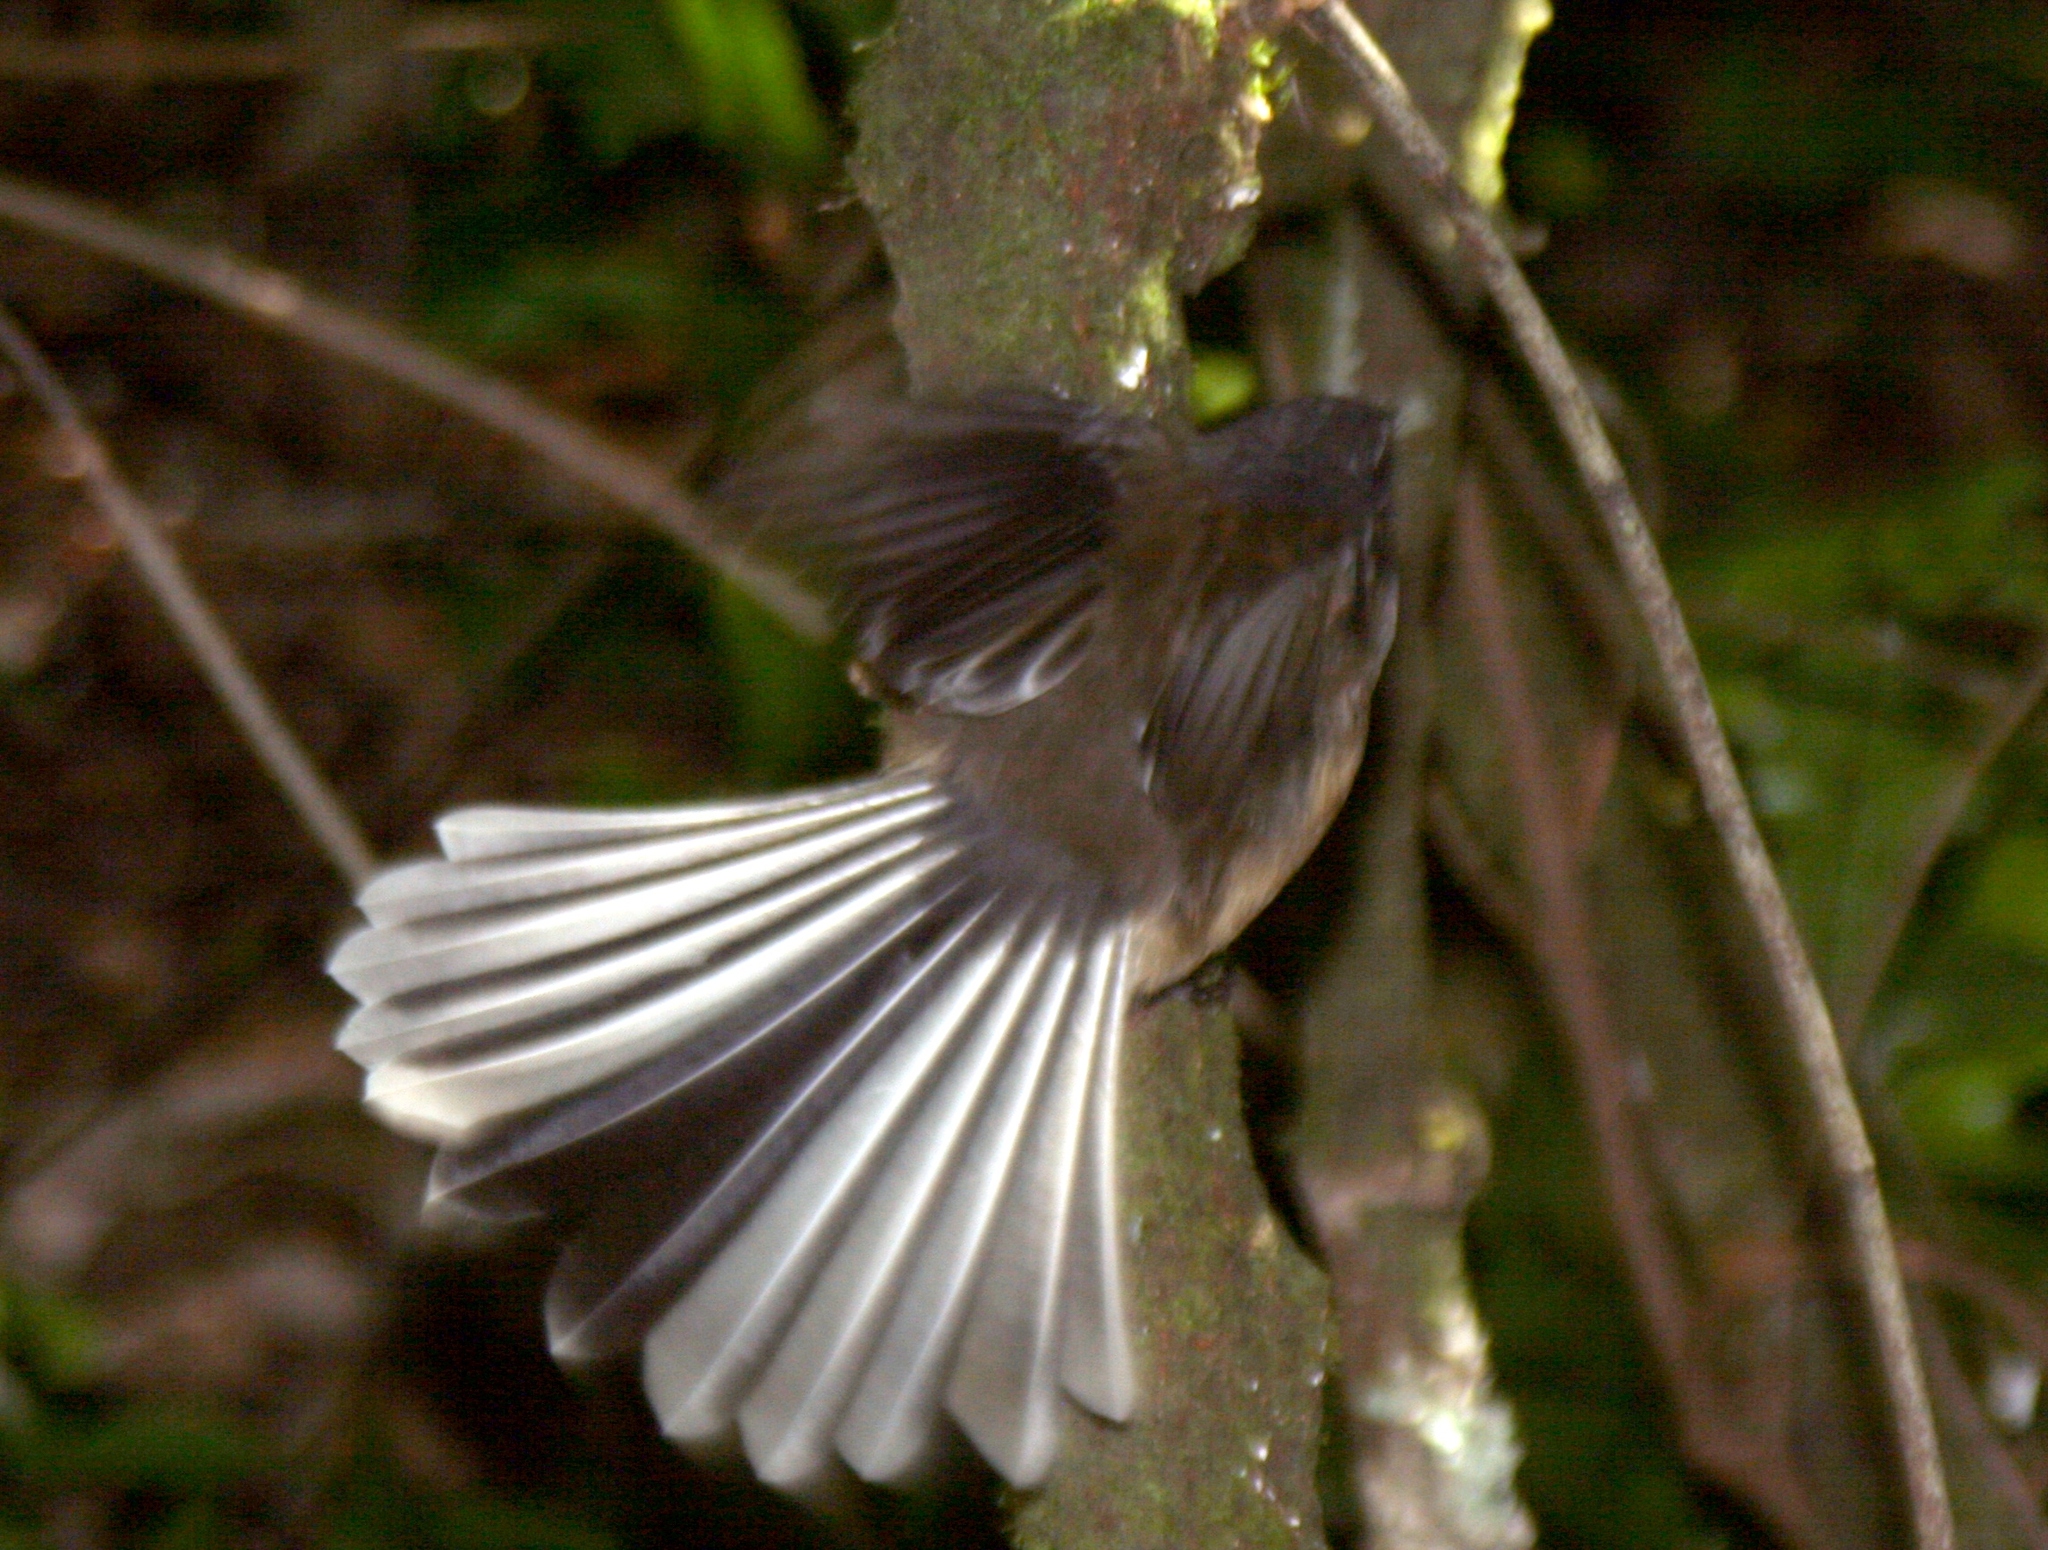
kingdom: Animalia
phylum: Chordata
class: Aves
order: Passeriformes
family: Rhipiduridae
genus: Rhipidura
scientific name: Rhipidura fuliginosa
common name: New zealand fantail
